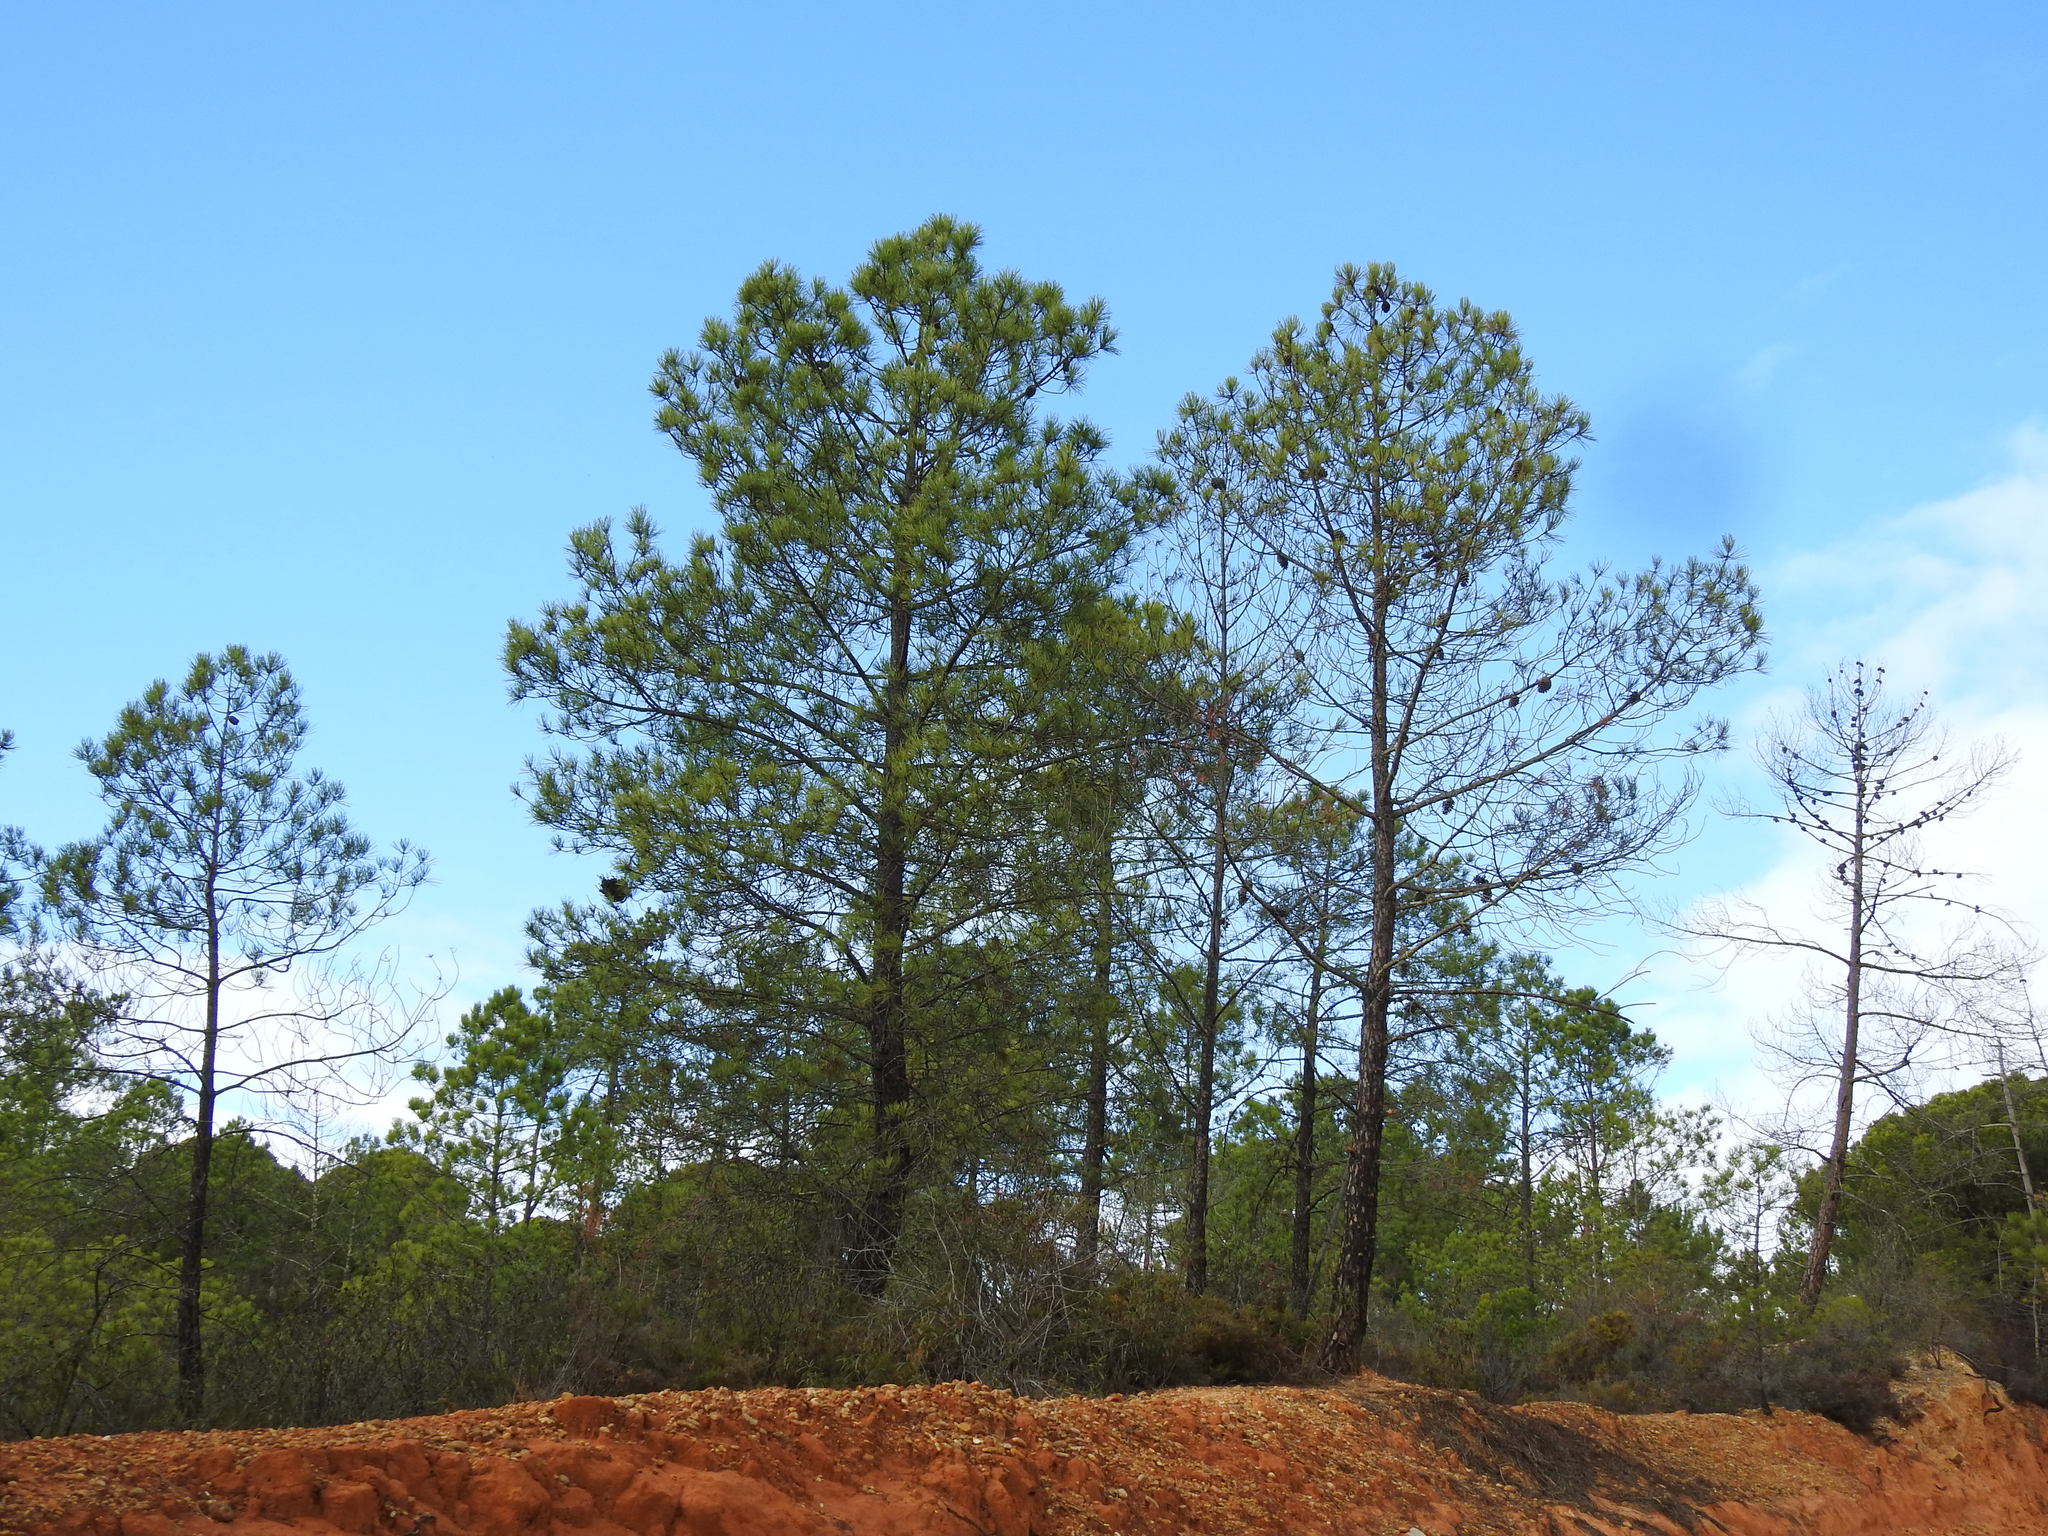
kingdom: Plantae
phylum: Tracheophyta
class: Pinopsida
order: Pinales
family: Pinaceae
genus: Pinus
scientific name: Pinus pinaster
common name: Maritime pine
